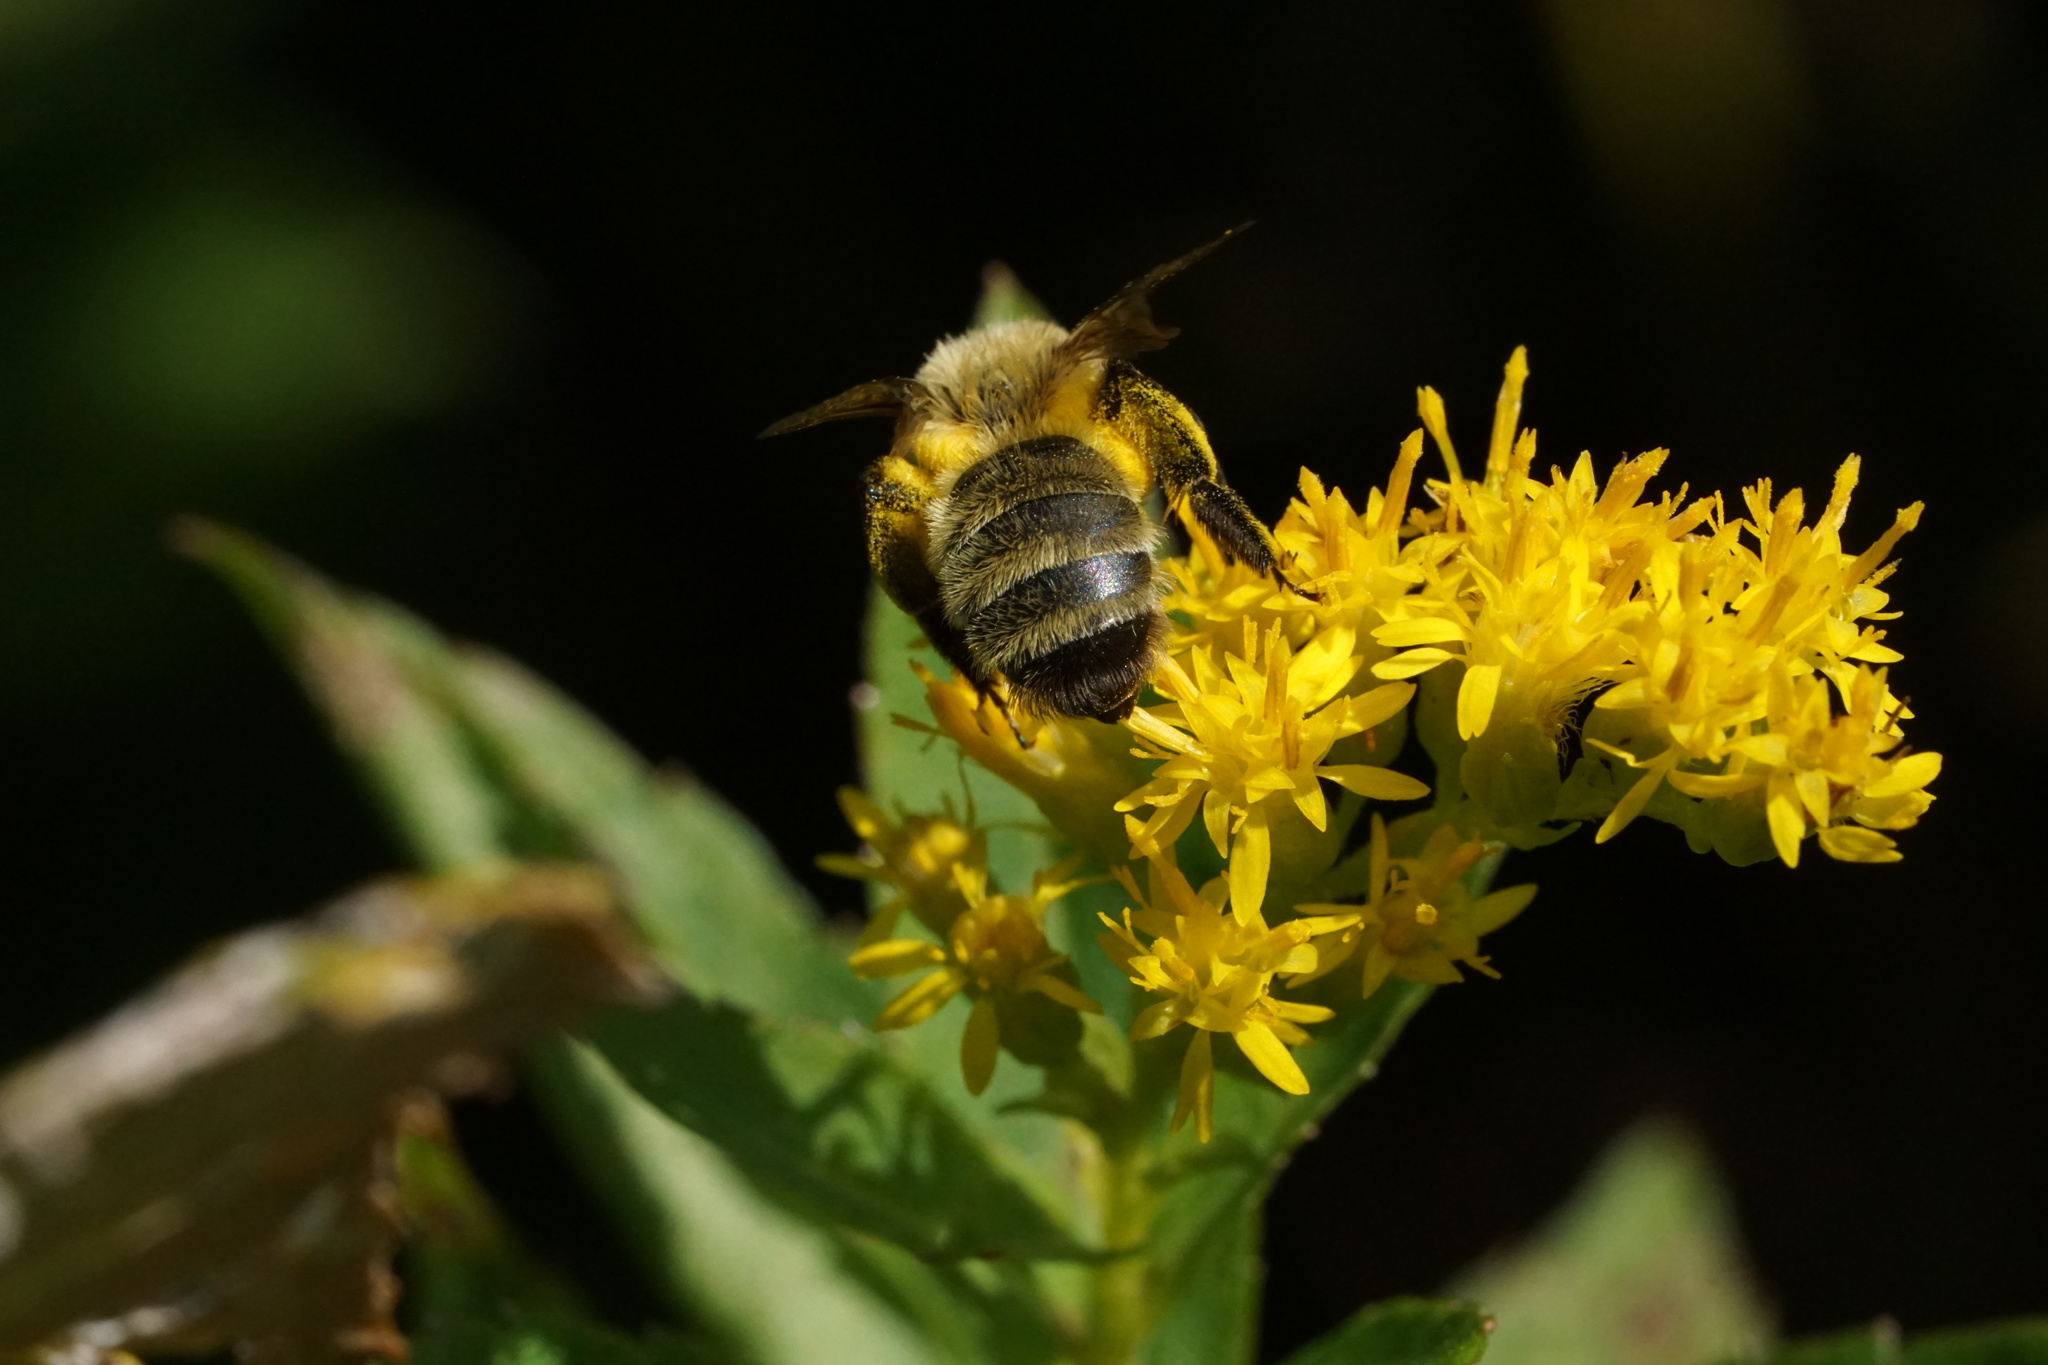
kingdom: Animalia
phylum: Arthropoda
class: Insecta
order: Hymenoptera
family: Andrenidae
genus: Andrena
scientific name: Andrena hirticincta
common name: Hairy-banded mining bee
